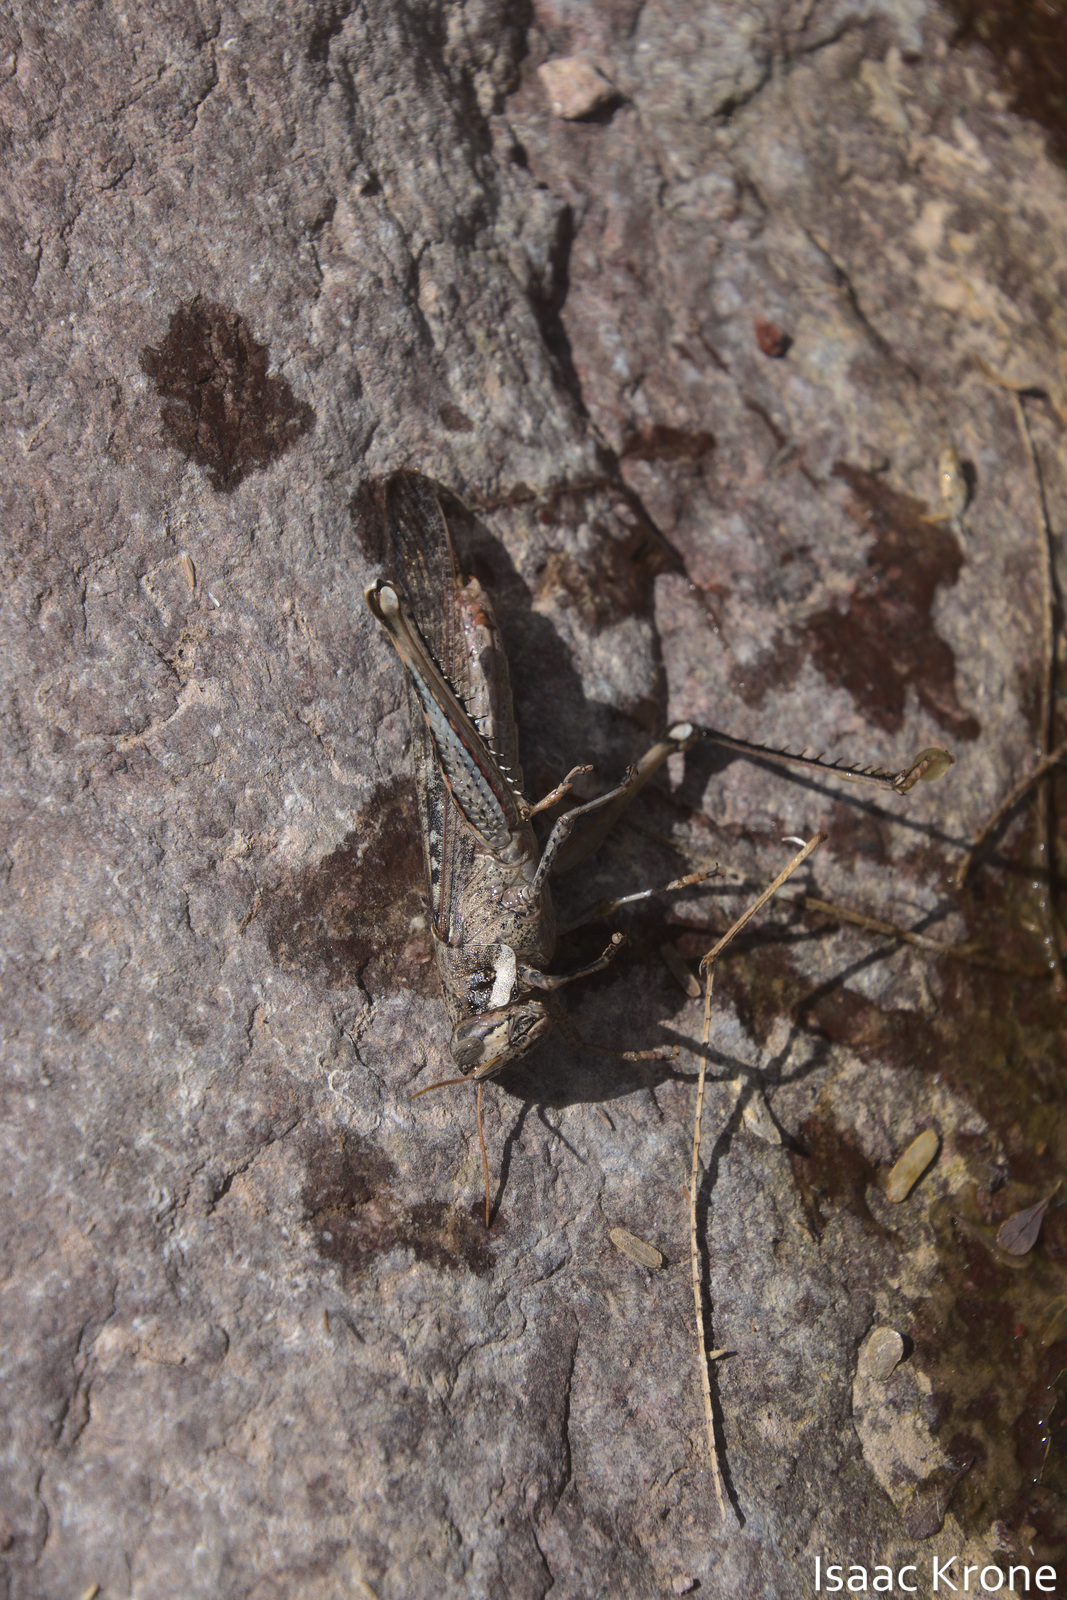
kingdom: Animalia
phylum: Arthropoda
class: Insecta
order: Orthoptera
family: Acrididae
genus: Schistocerca
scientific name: Schistocerca nitens
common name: Vagrant grasshopper
